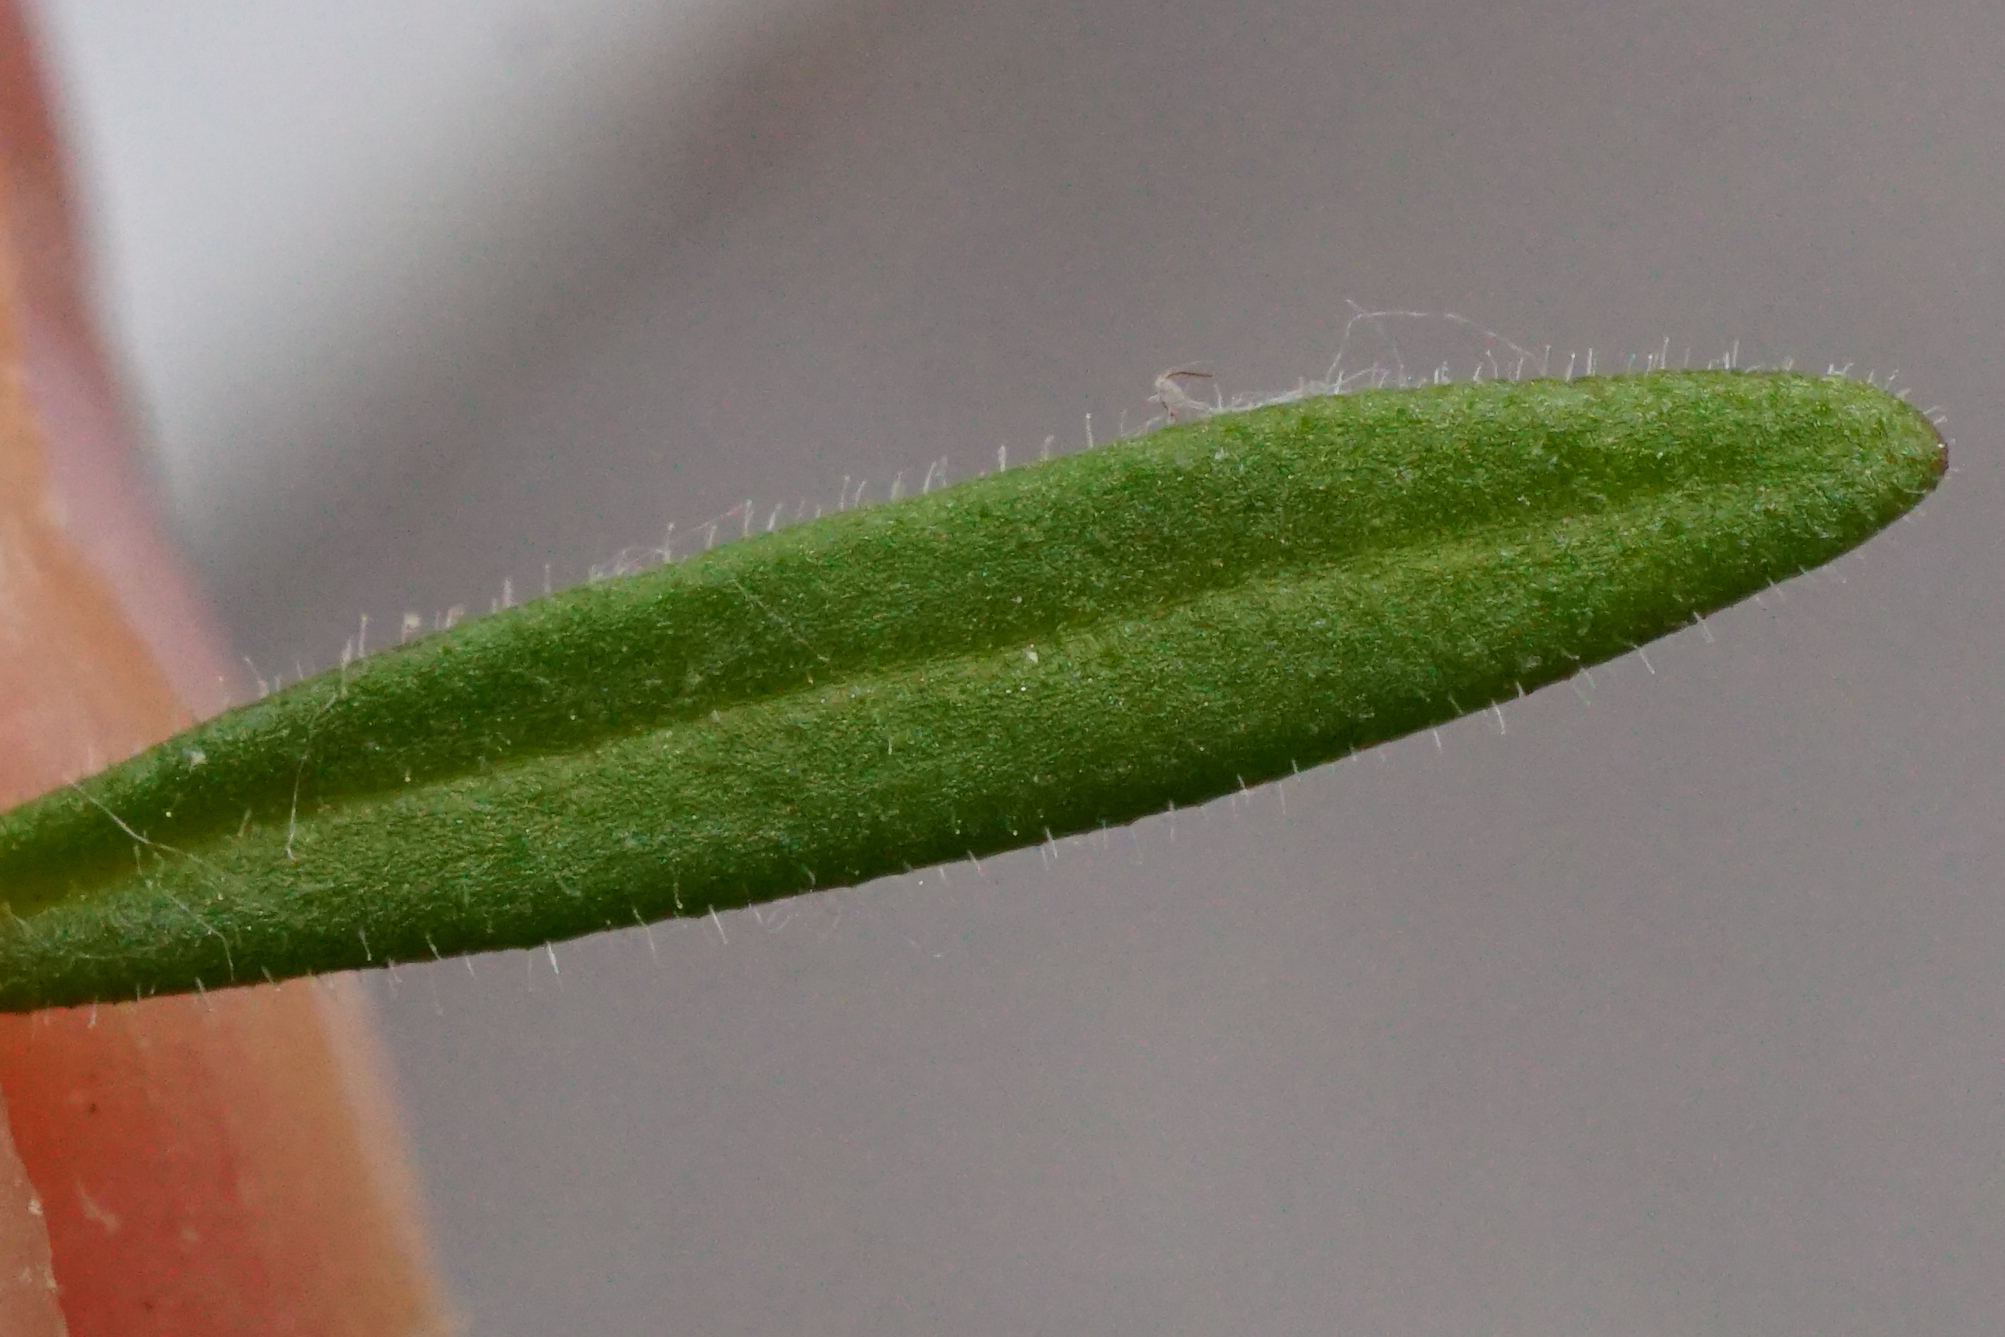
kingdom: Plantae
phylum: Tracheophyta
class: Magnoliopsida
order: Lamiales
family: Plantaginaceae
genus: Chaenorhinum
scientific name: Chaenorhinum minus
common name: Dwarf snapdragon
